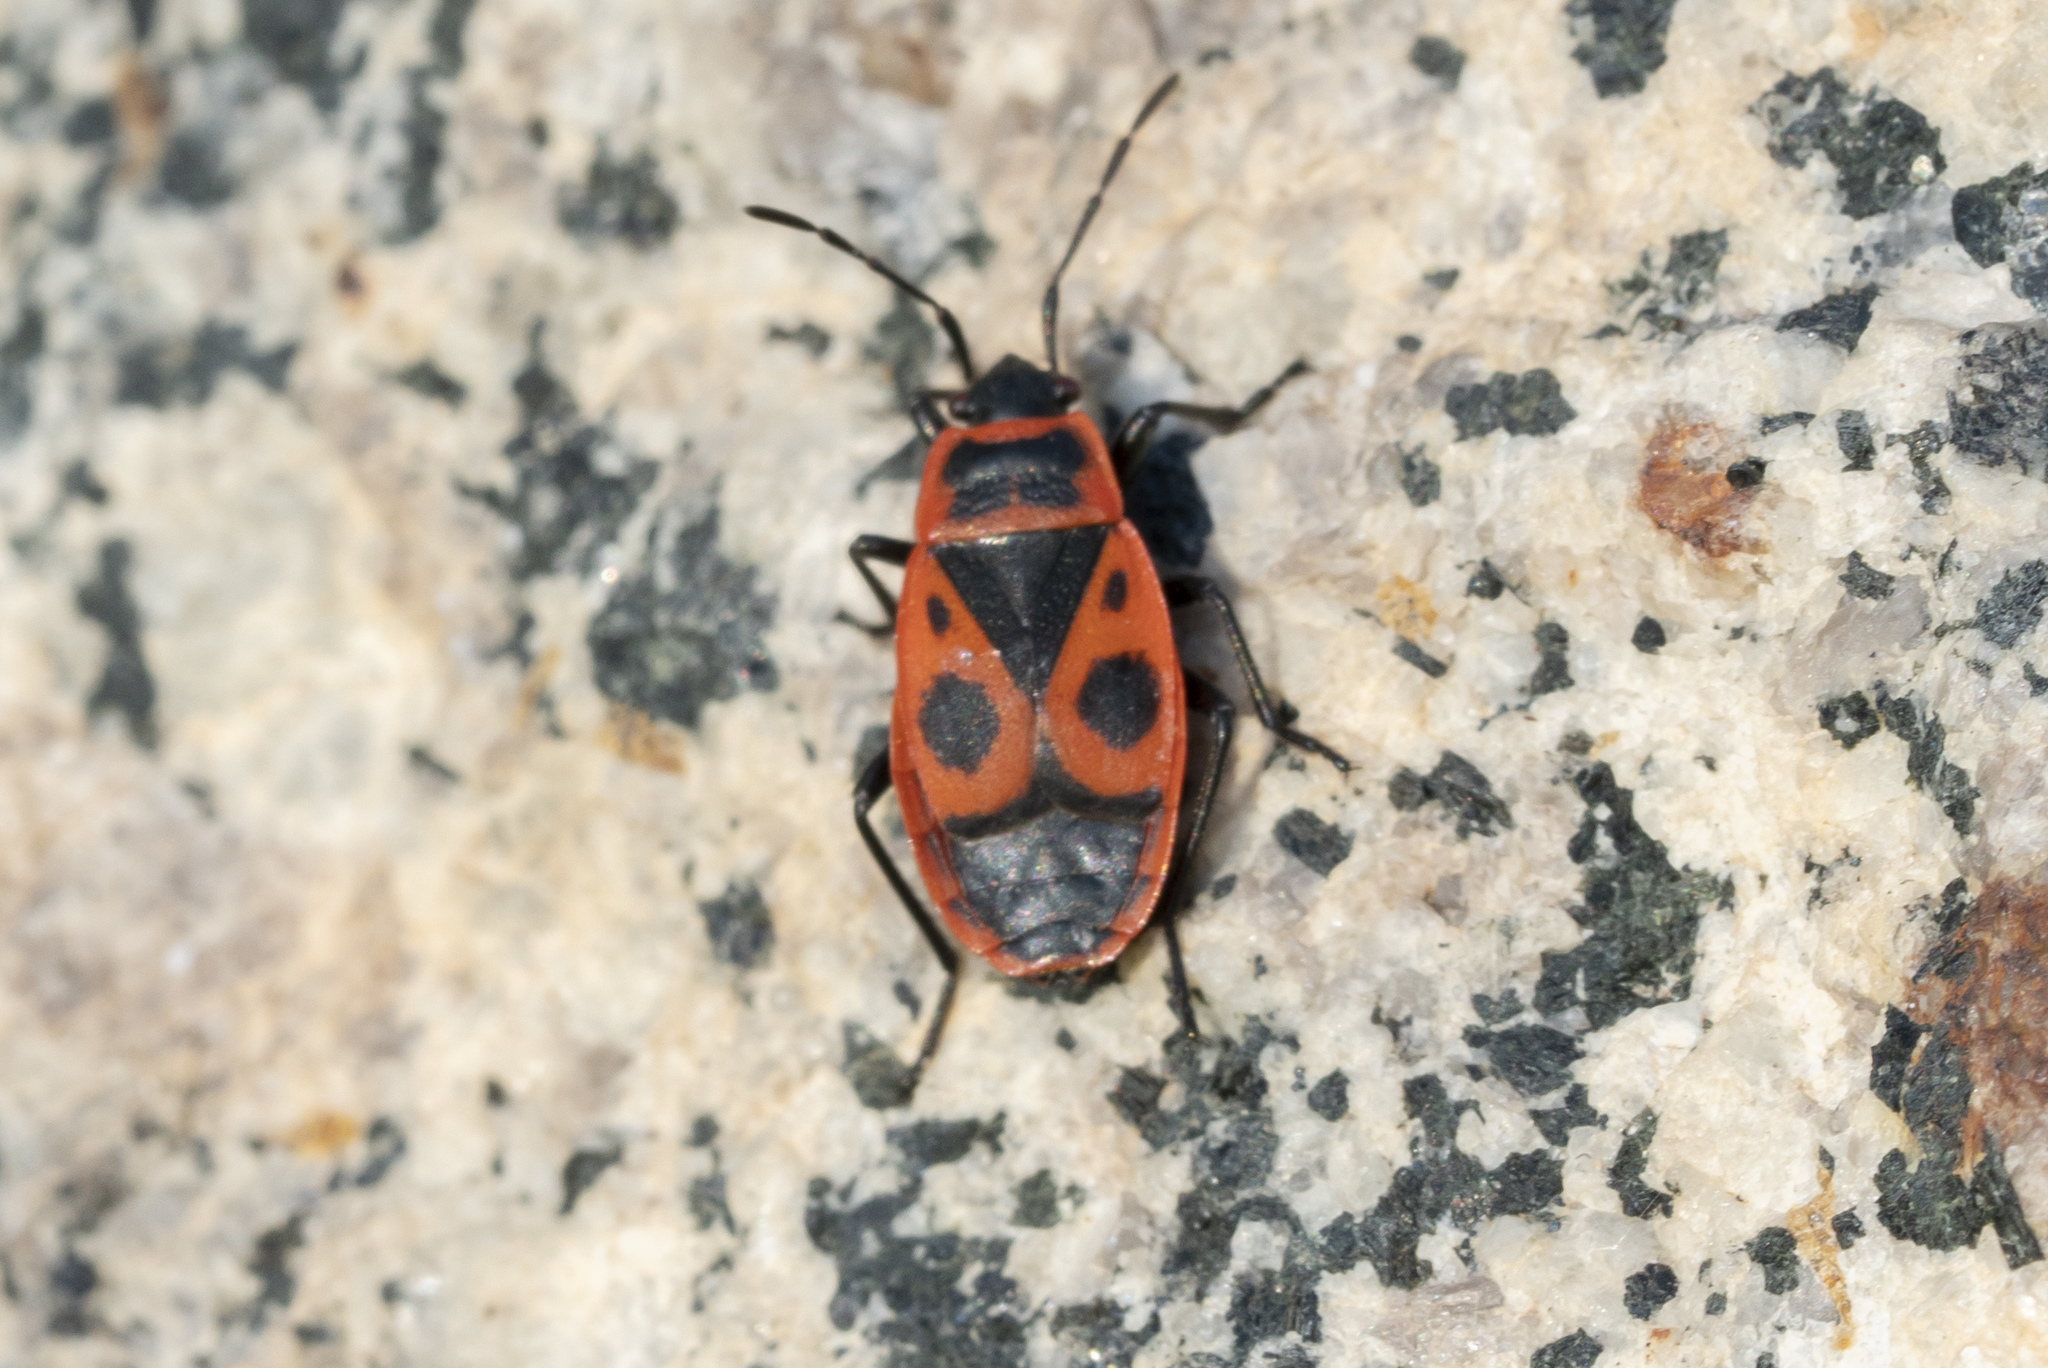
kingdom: Animalia
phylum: Arthropoda
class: Insecta
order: Hemiptera
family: Pyrrhocoridae
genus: Pyrrhocoris
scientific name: Pyrrhocoris apterus
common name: Firebug
